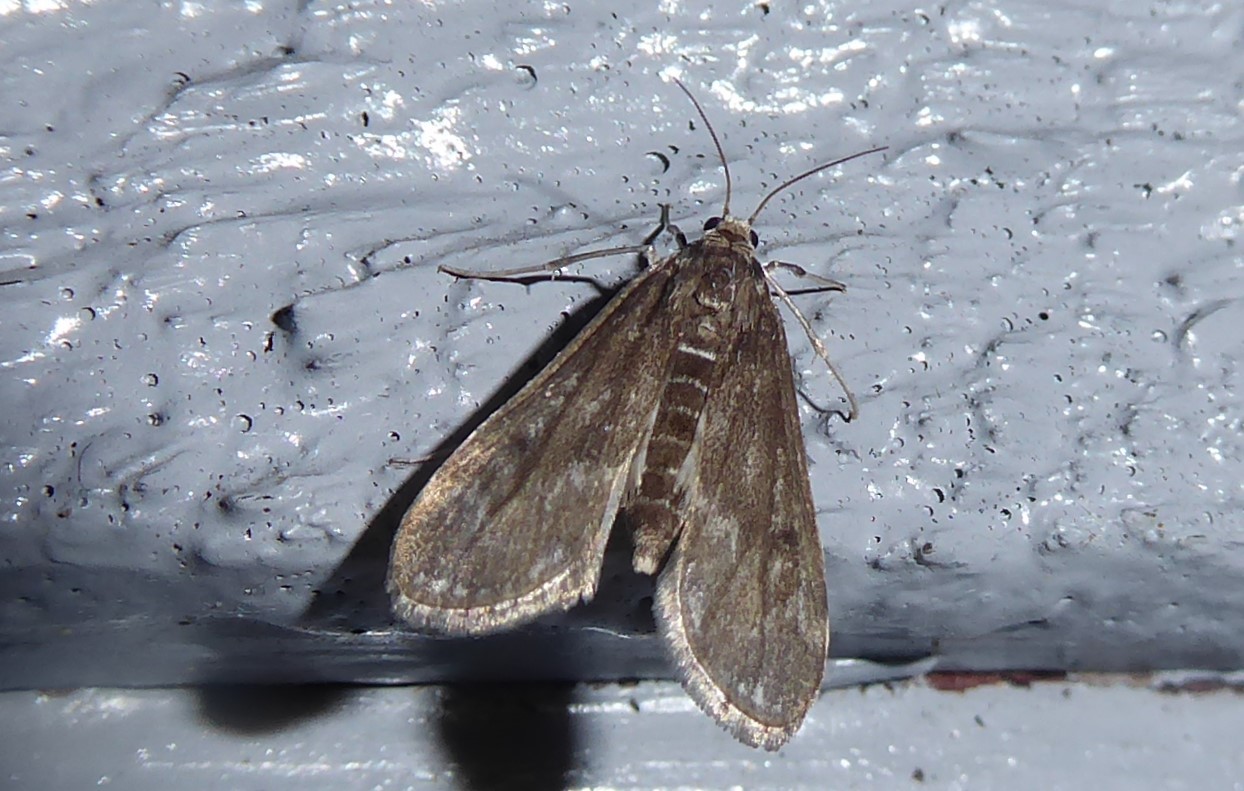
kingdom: Animalia
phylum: Arthropoda
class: Insecta
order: Lepidoptera
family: Crambidae
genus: Hygraula
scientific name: Hygraula nitens
